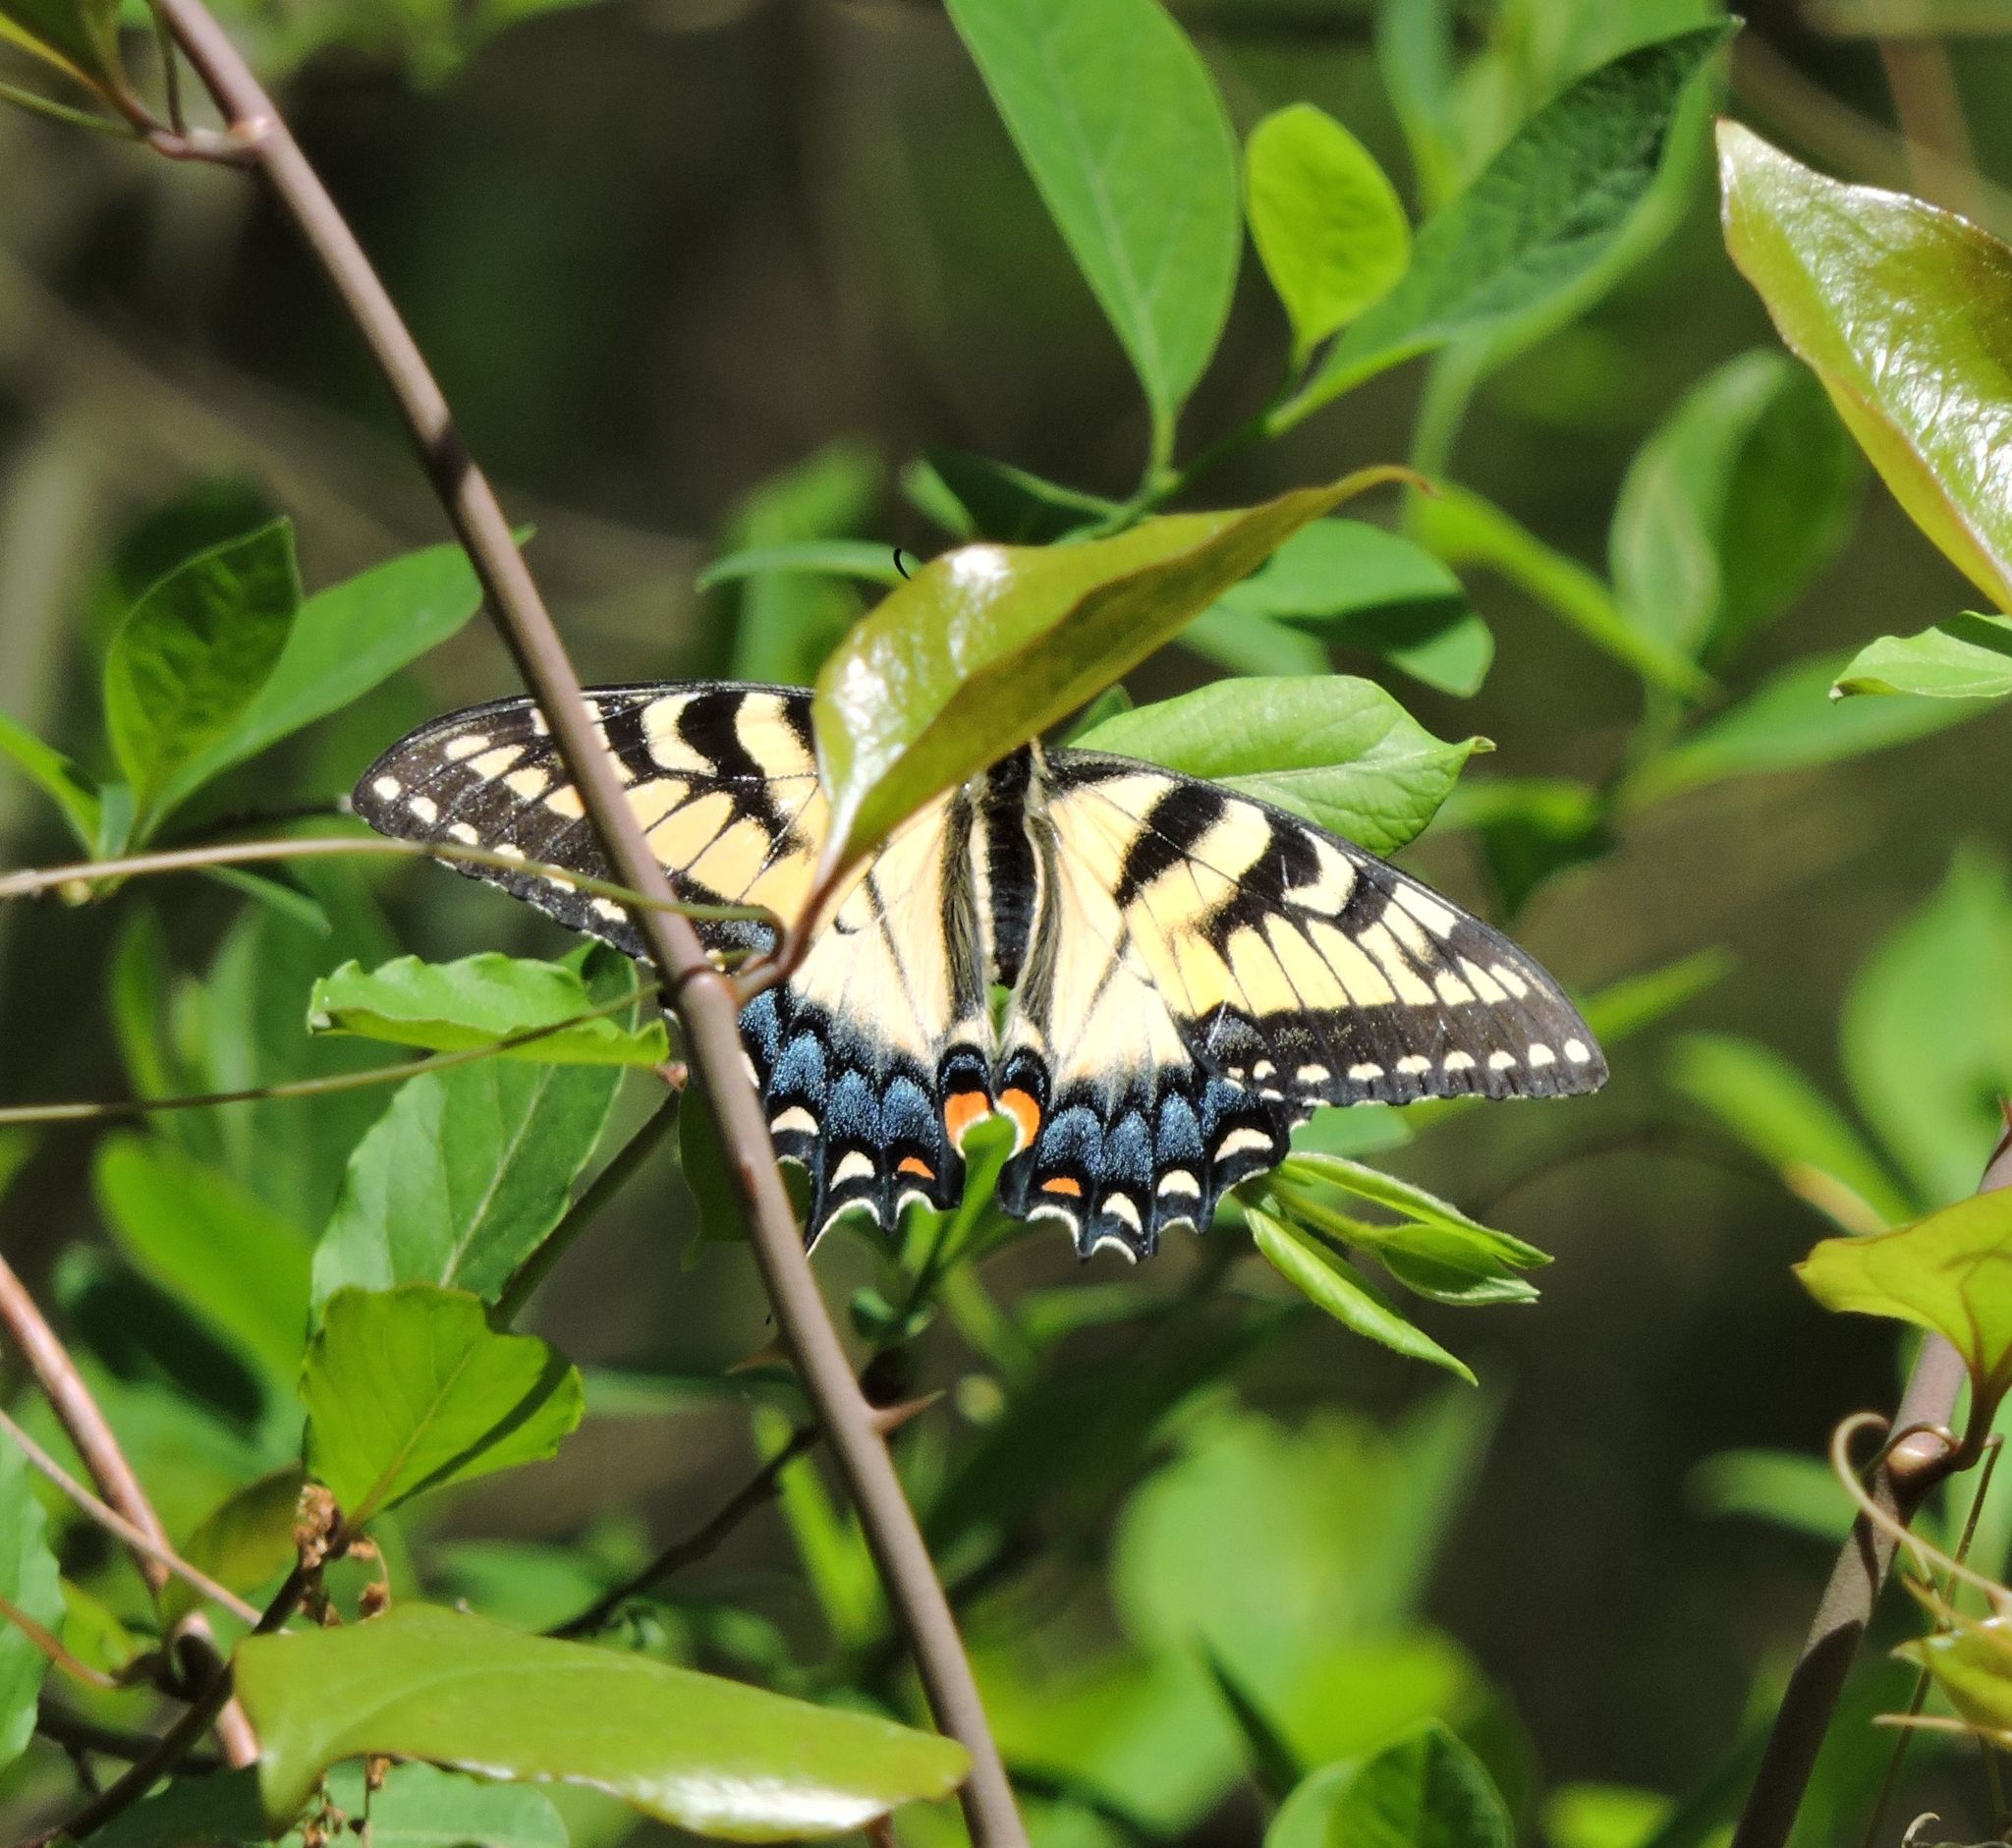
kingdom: Animalia
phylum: Arthropoda
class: Insecta
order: Lepidoptera
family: Papilionidae
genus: Papilio
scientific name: Papilio glaucus
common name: Tiger swallowtail
